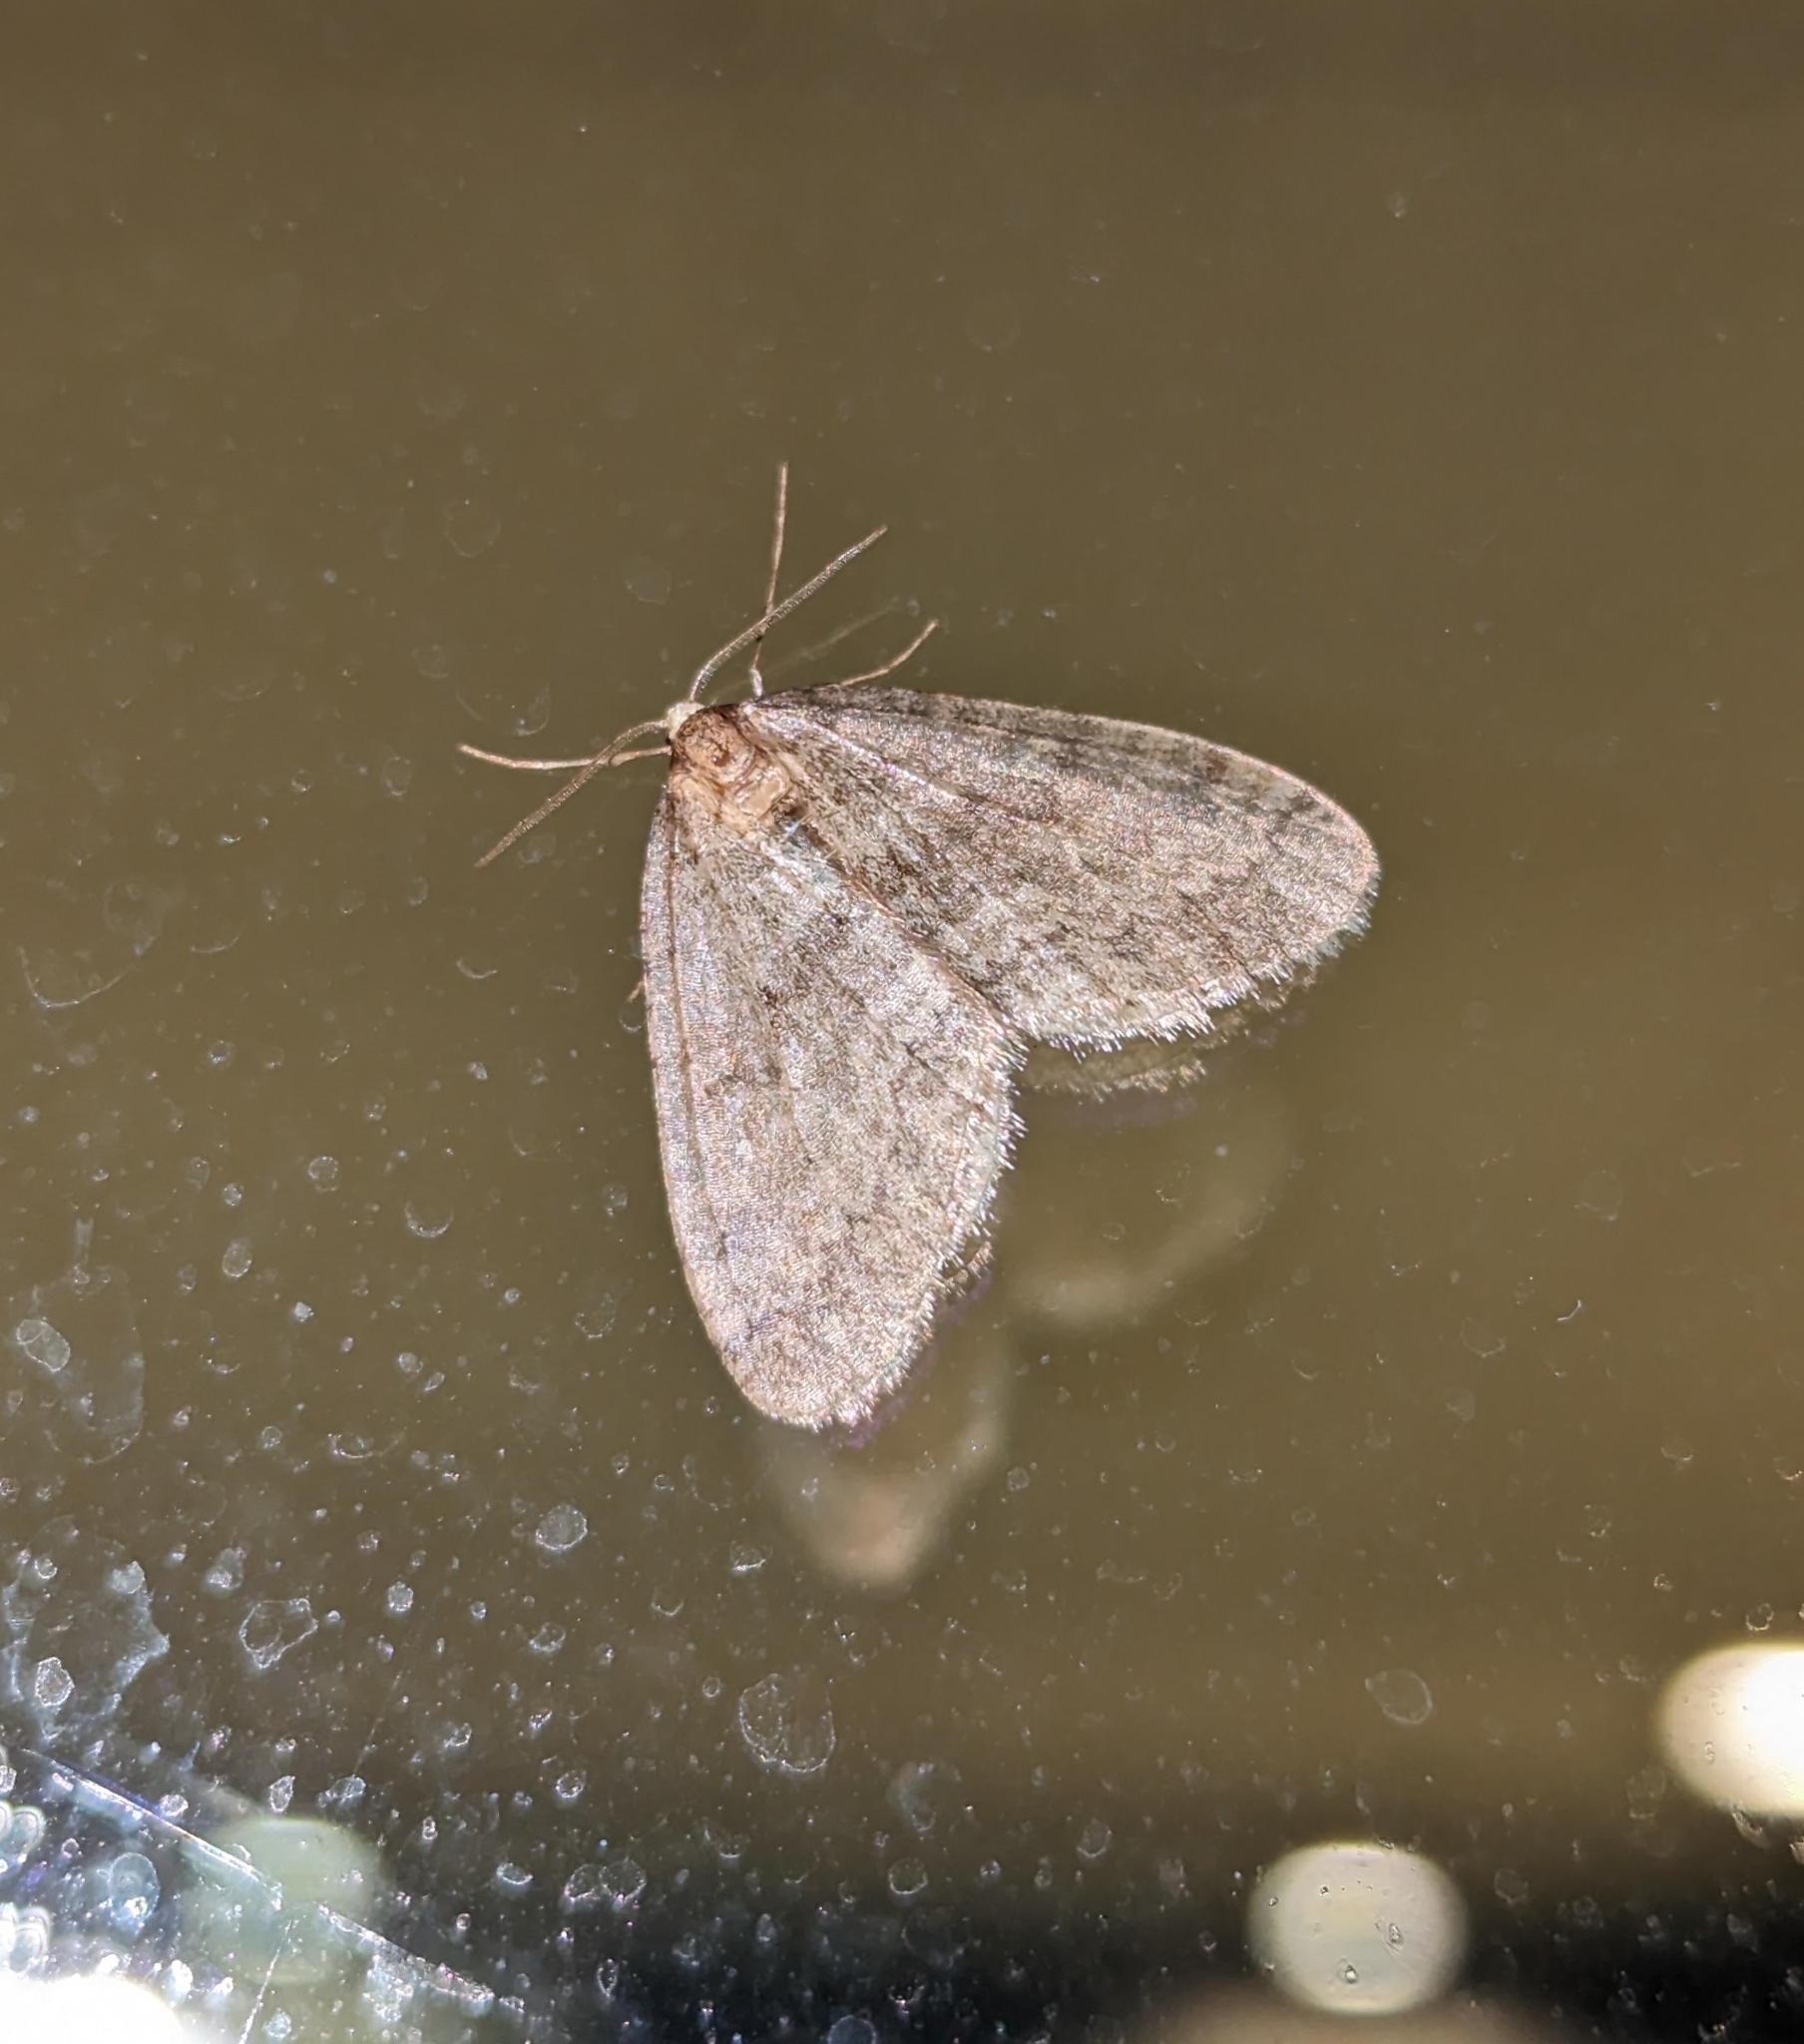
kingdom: Animalia
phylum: Arthropoda
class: Insecta
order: Lepidoptera
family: Geometridae
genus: Operophtera
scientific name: Operophtera brumata
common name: Winter moth
